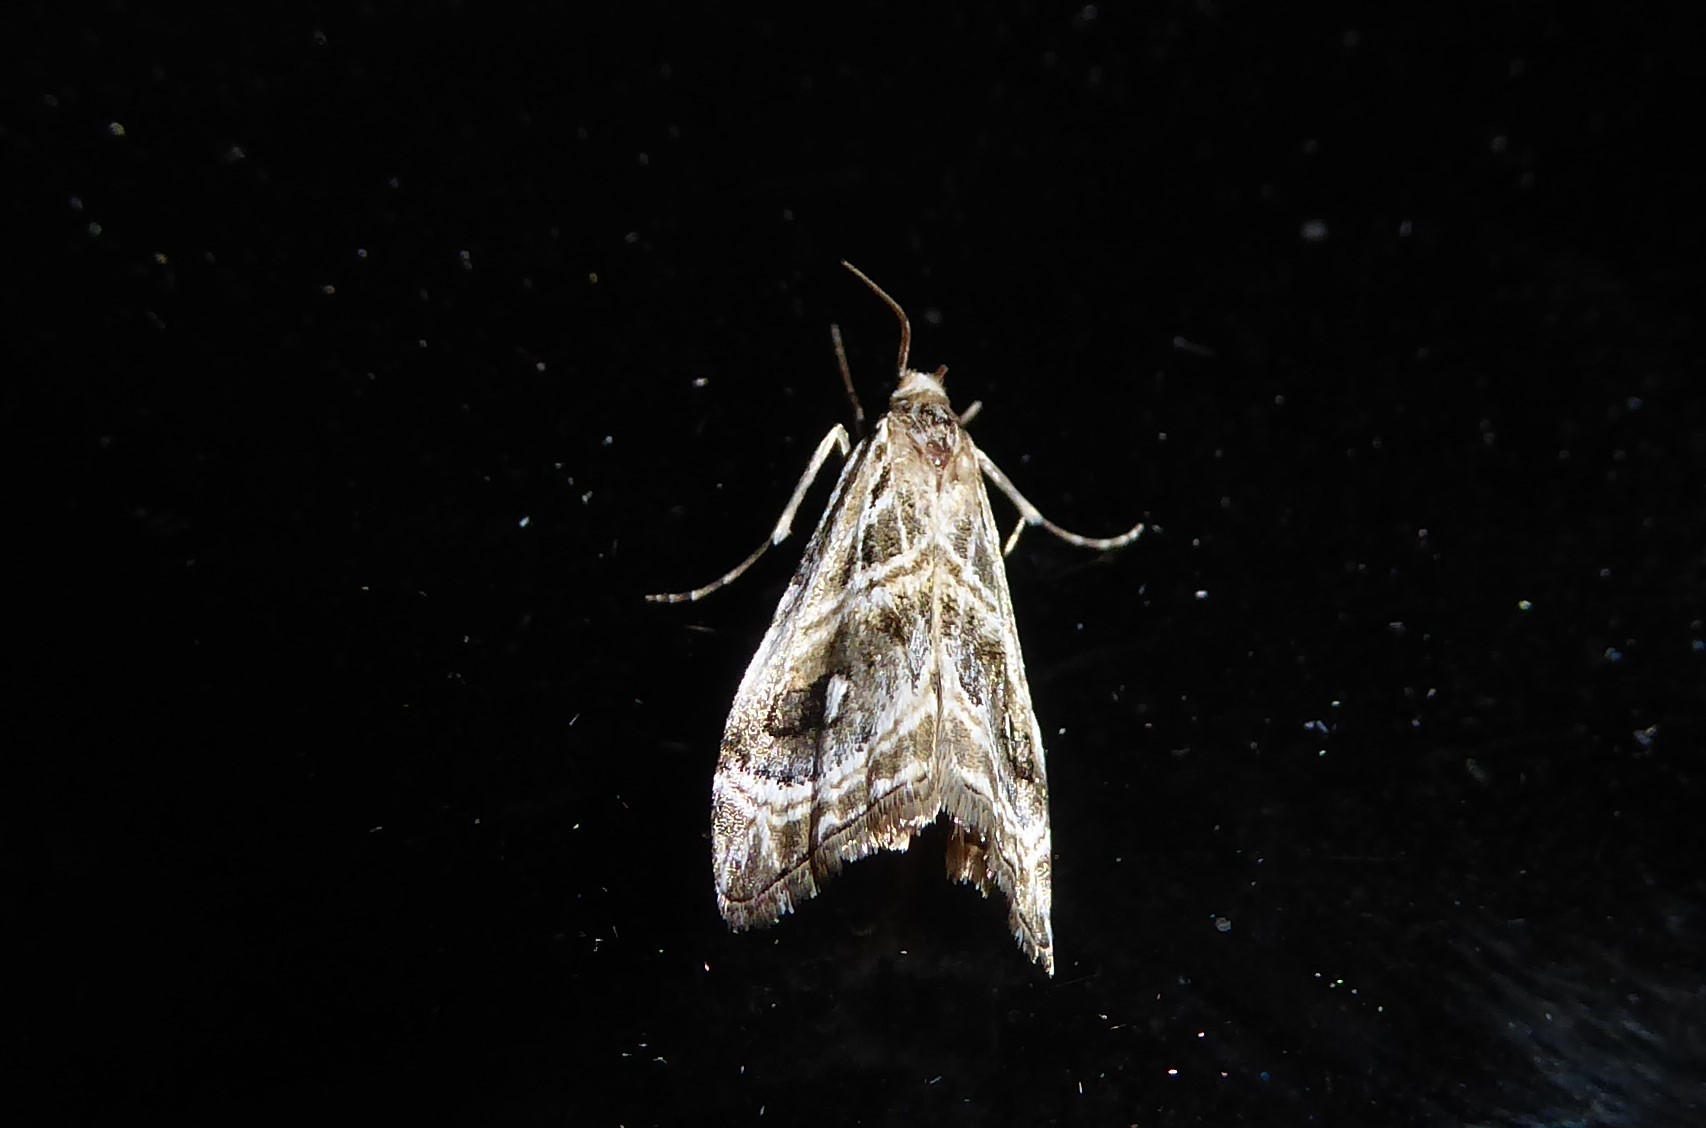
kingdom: Animalia
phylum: Arthropoda
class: Insecta
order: Lepidoptera
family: Crambidae
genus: Gadira
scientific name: Gadira acerella
